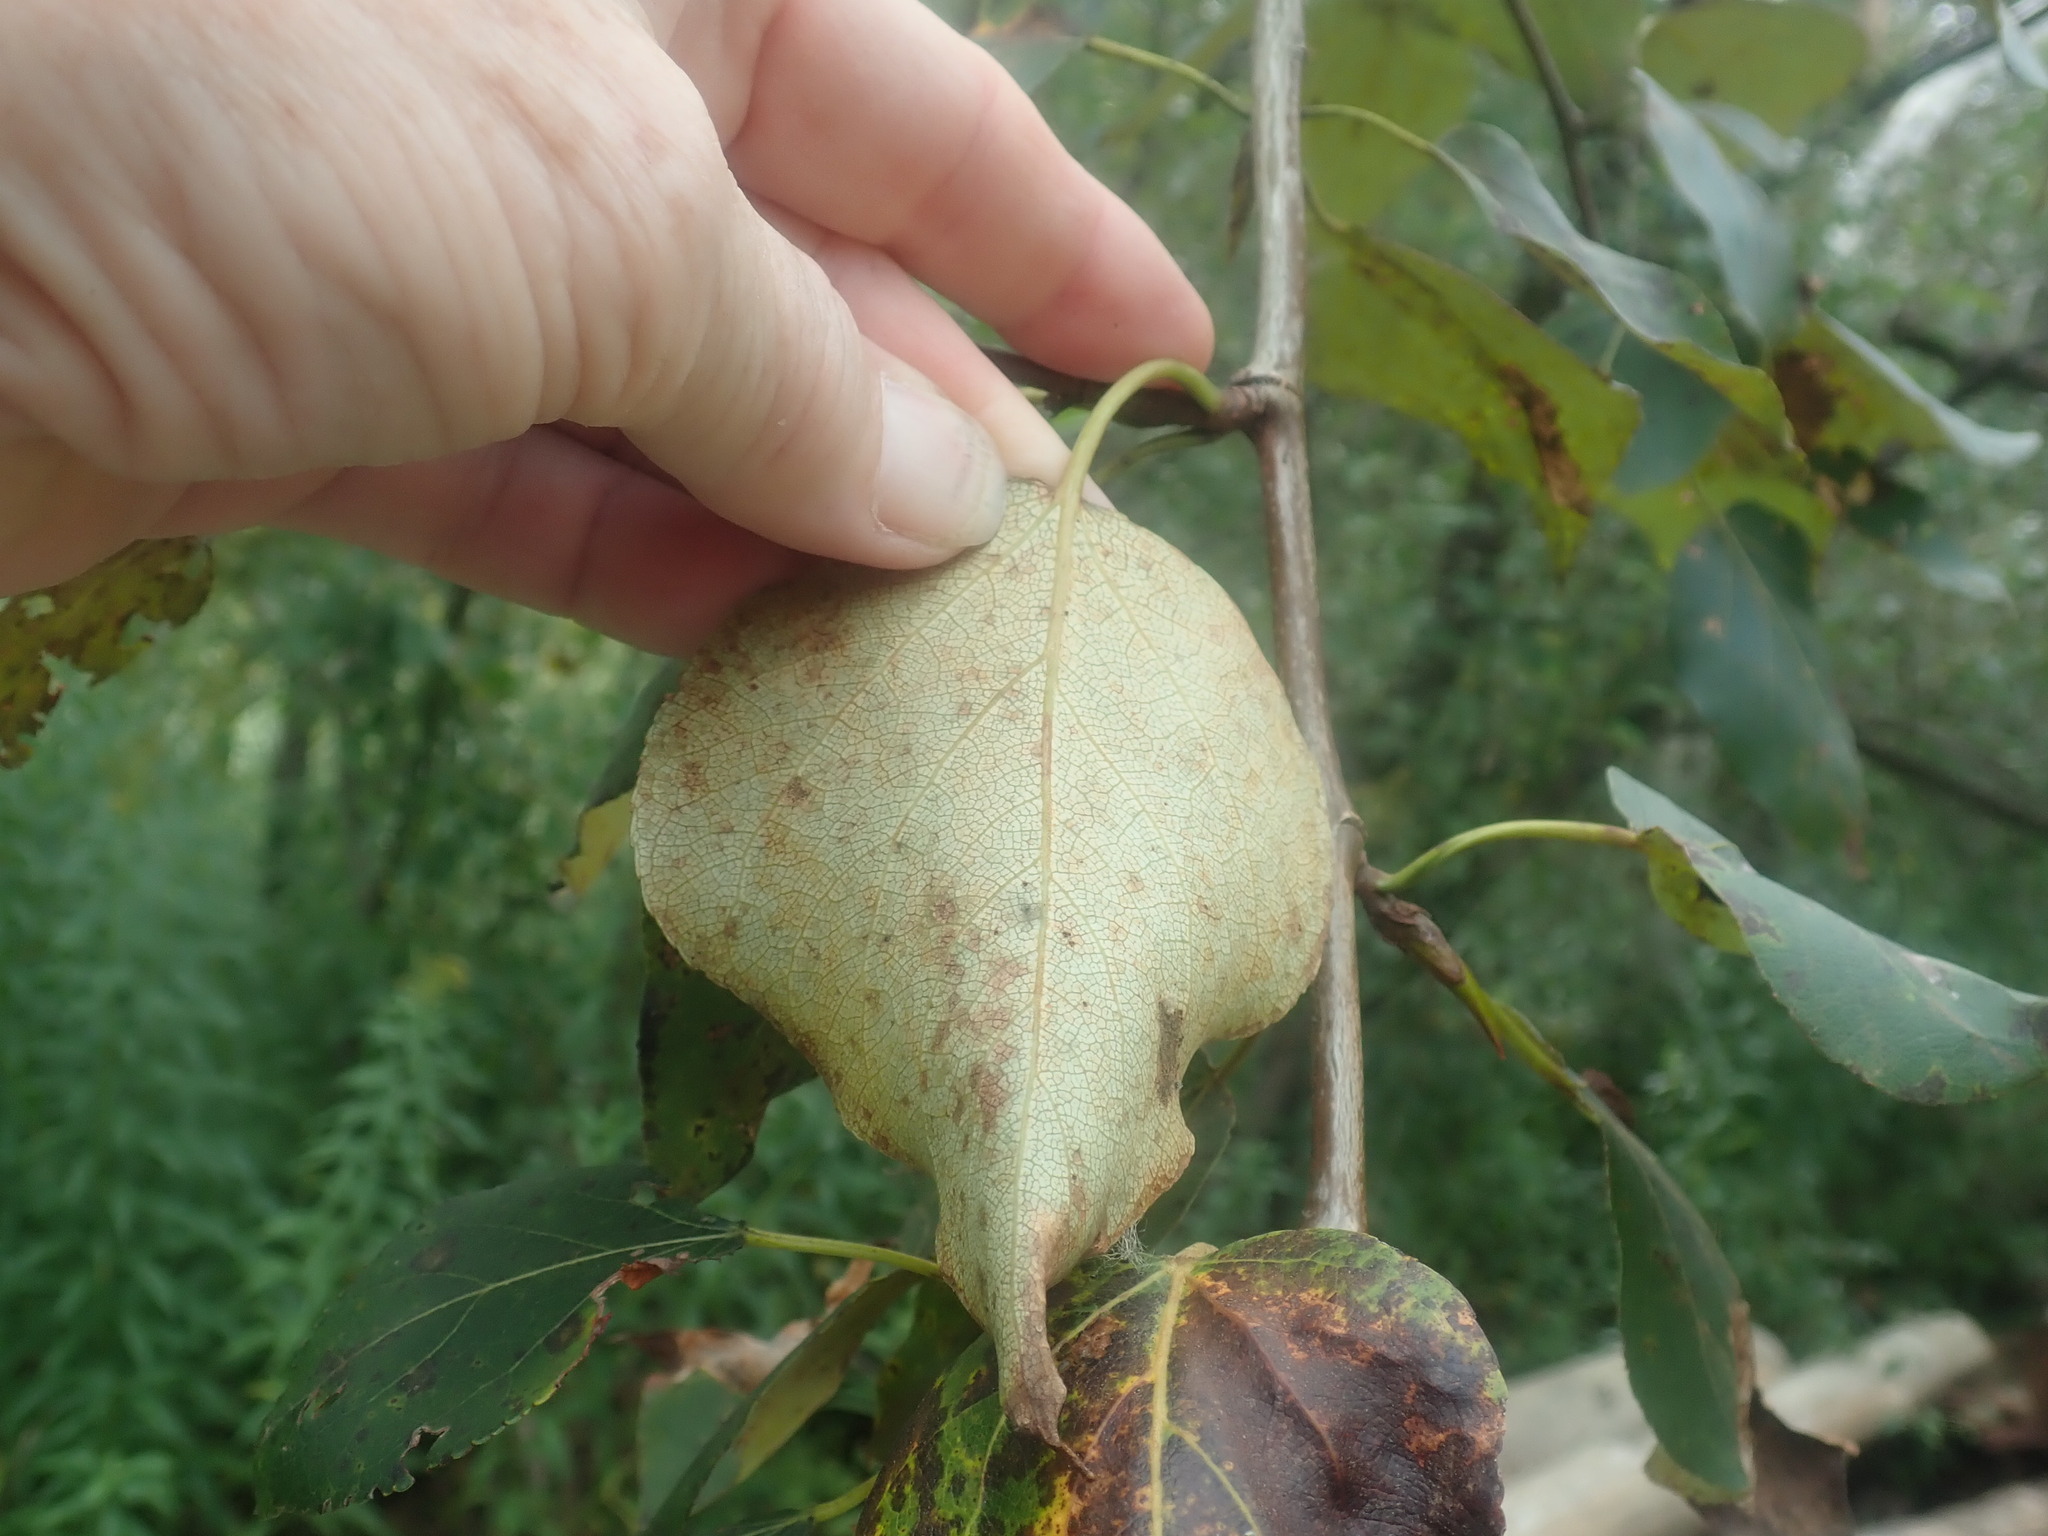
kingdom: Plantae
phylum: Tracheophyta
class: Magnoliopsida
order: Malpighiales
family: Salicaceae
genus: Populus
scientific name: Populus balsamifera
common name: Balsam poplar
